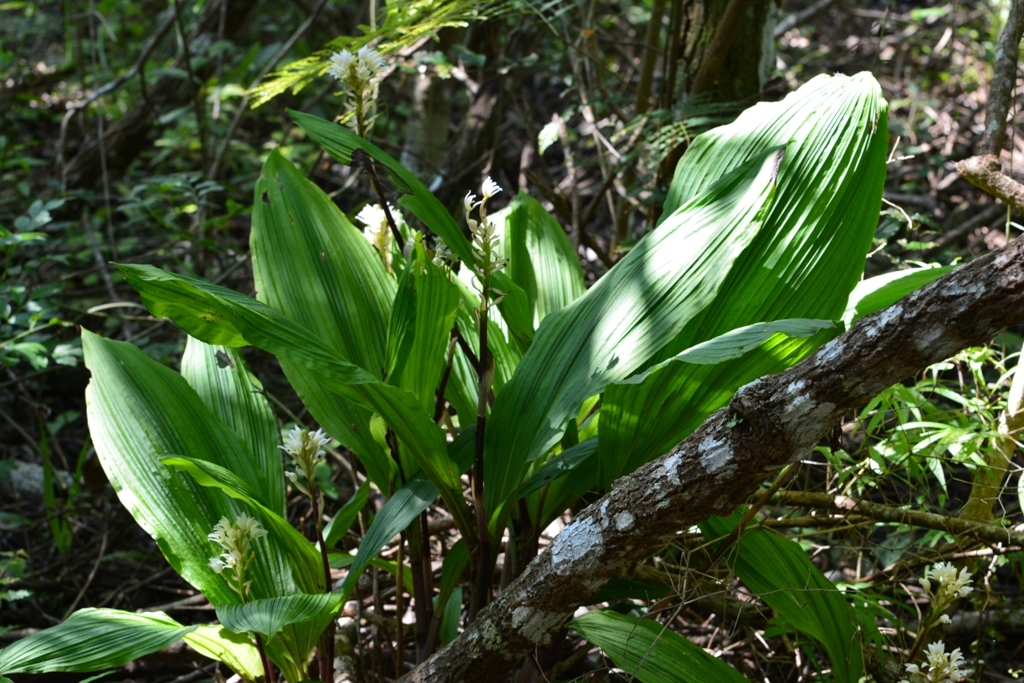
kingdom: Plantae
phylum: Tracheophyta
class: Liliopsida
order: Asparagales
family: Orchidaceae
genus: Govenia
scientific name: Govenia alba
